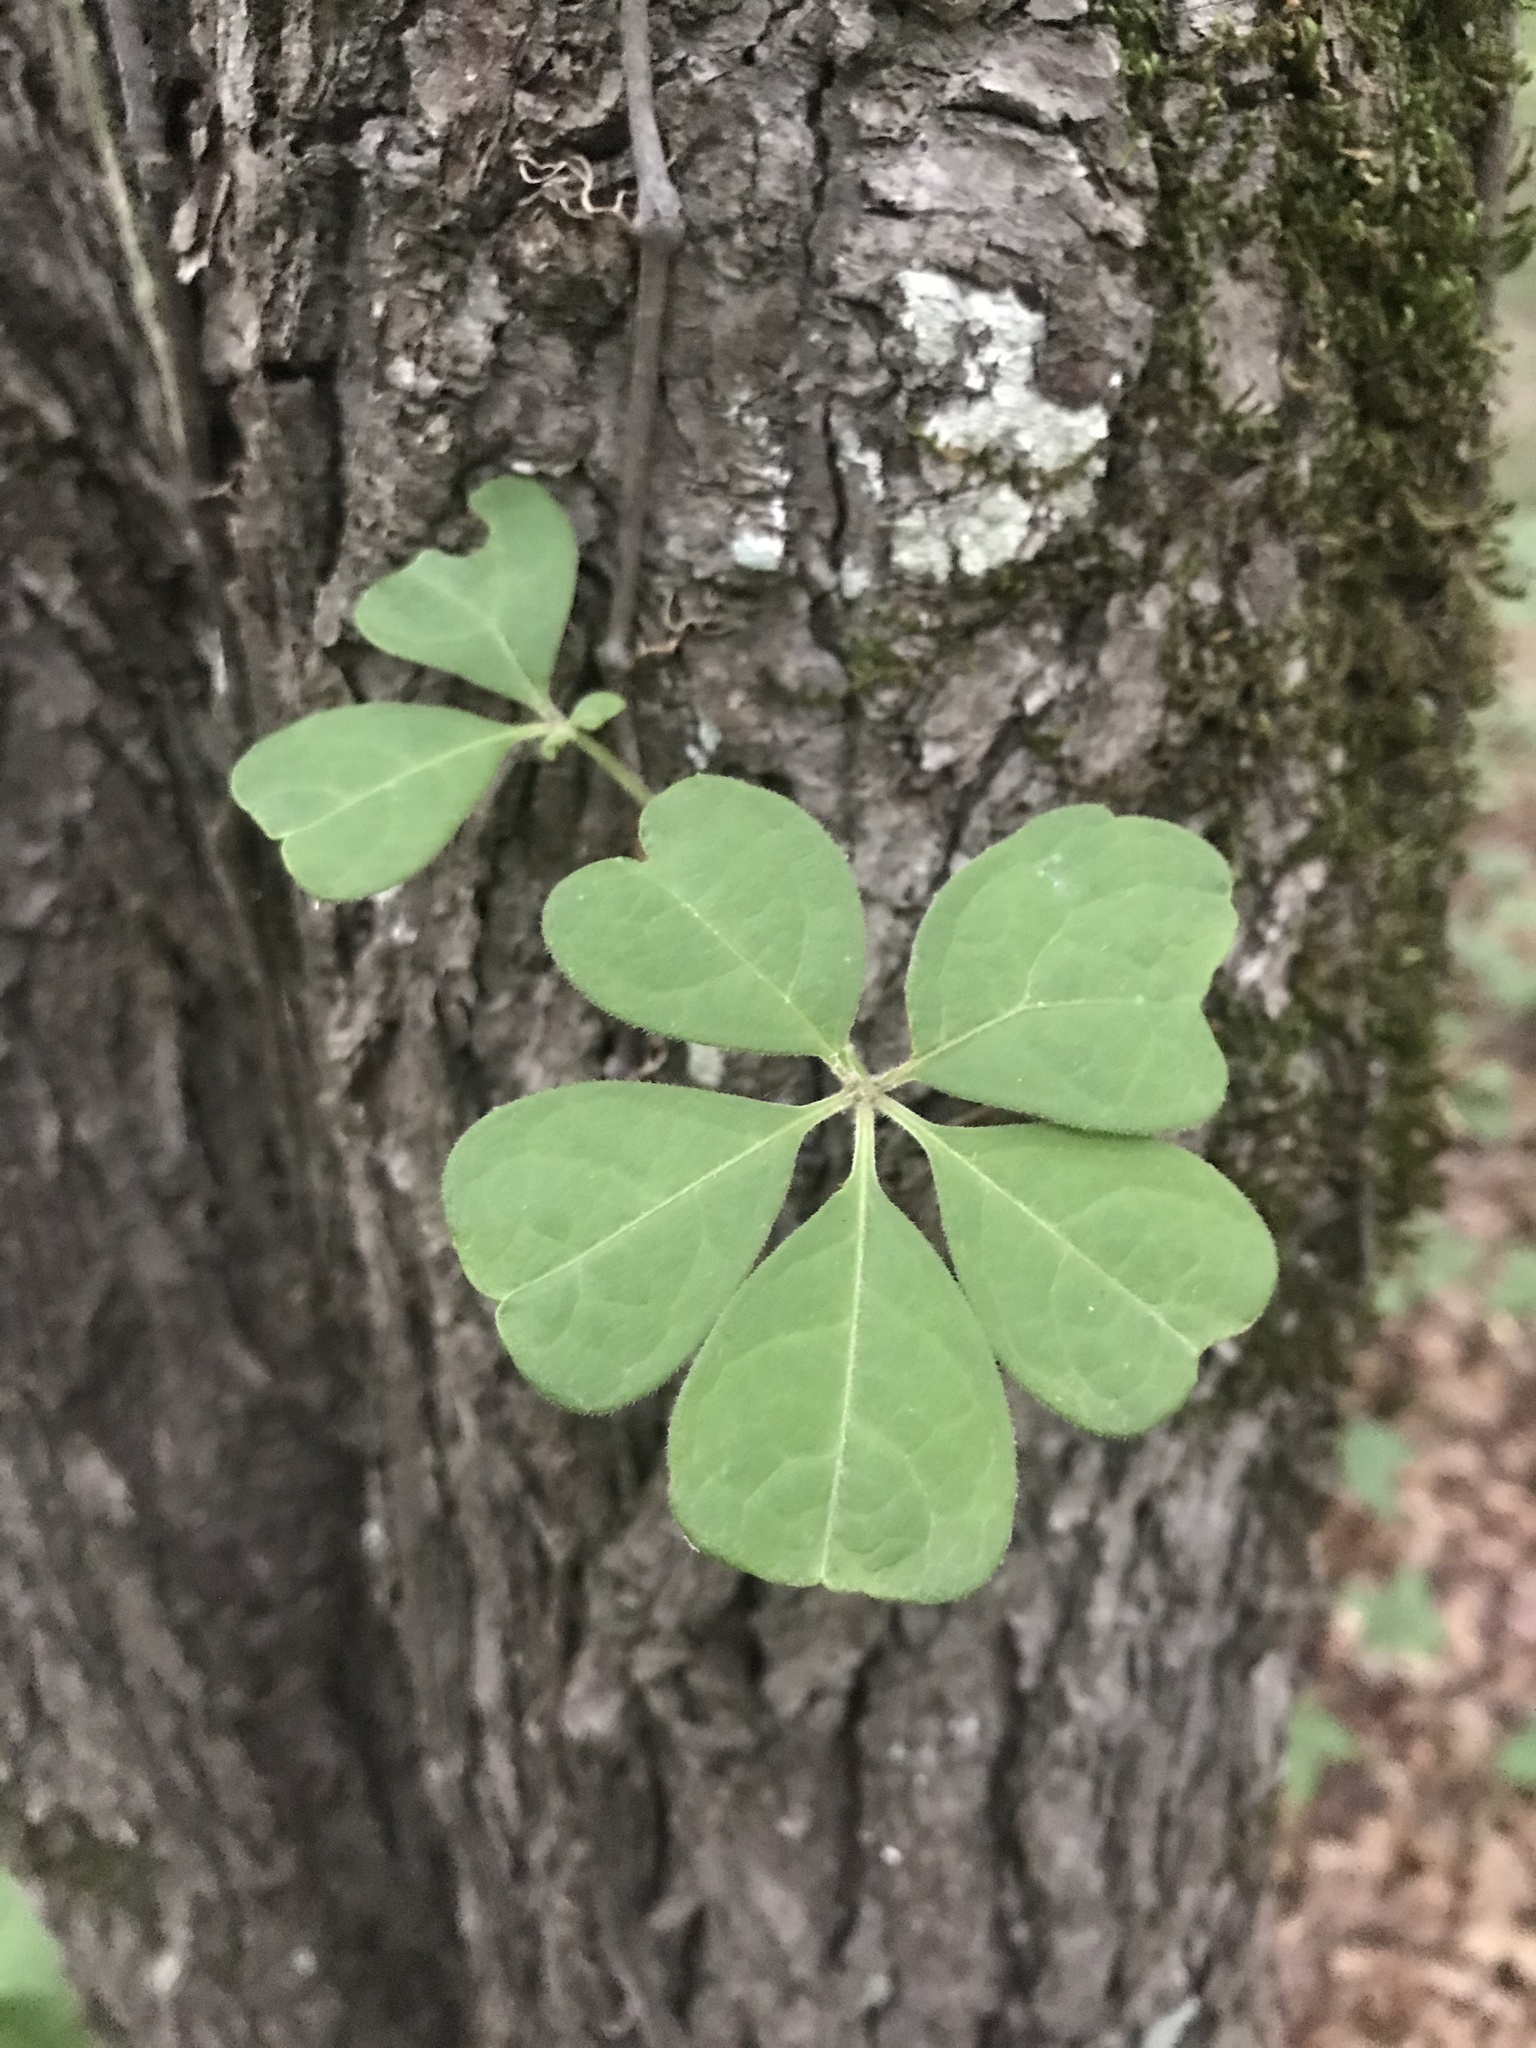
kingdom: Plantae
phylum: Tracheophyta
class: Magnoliopsida
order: Vitales
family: Vitaceae
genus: Parthenocissus
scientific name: Parthenocissus quinquefolia
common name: Virginia-creeper
